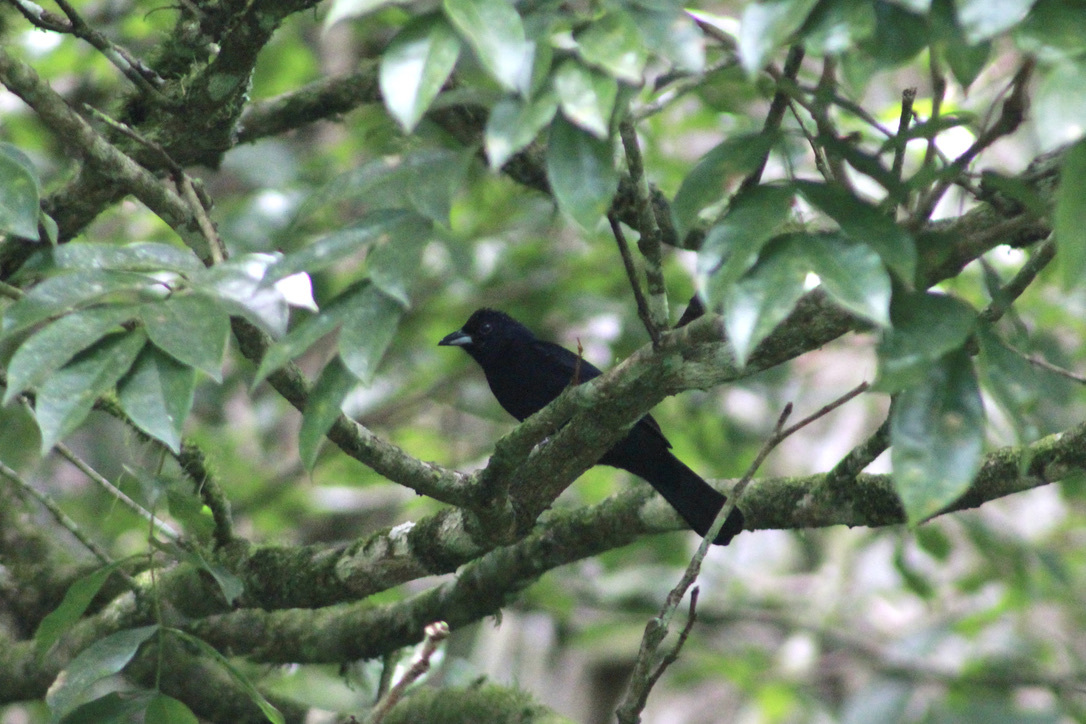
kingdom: Animalia
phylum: Chordata
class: Aves
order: Passeriformes
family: Thraupidae
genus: Tachyphonus
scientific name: Tachyphonus rufus
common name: White-lined tanager
